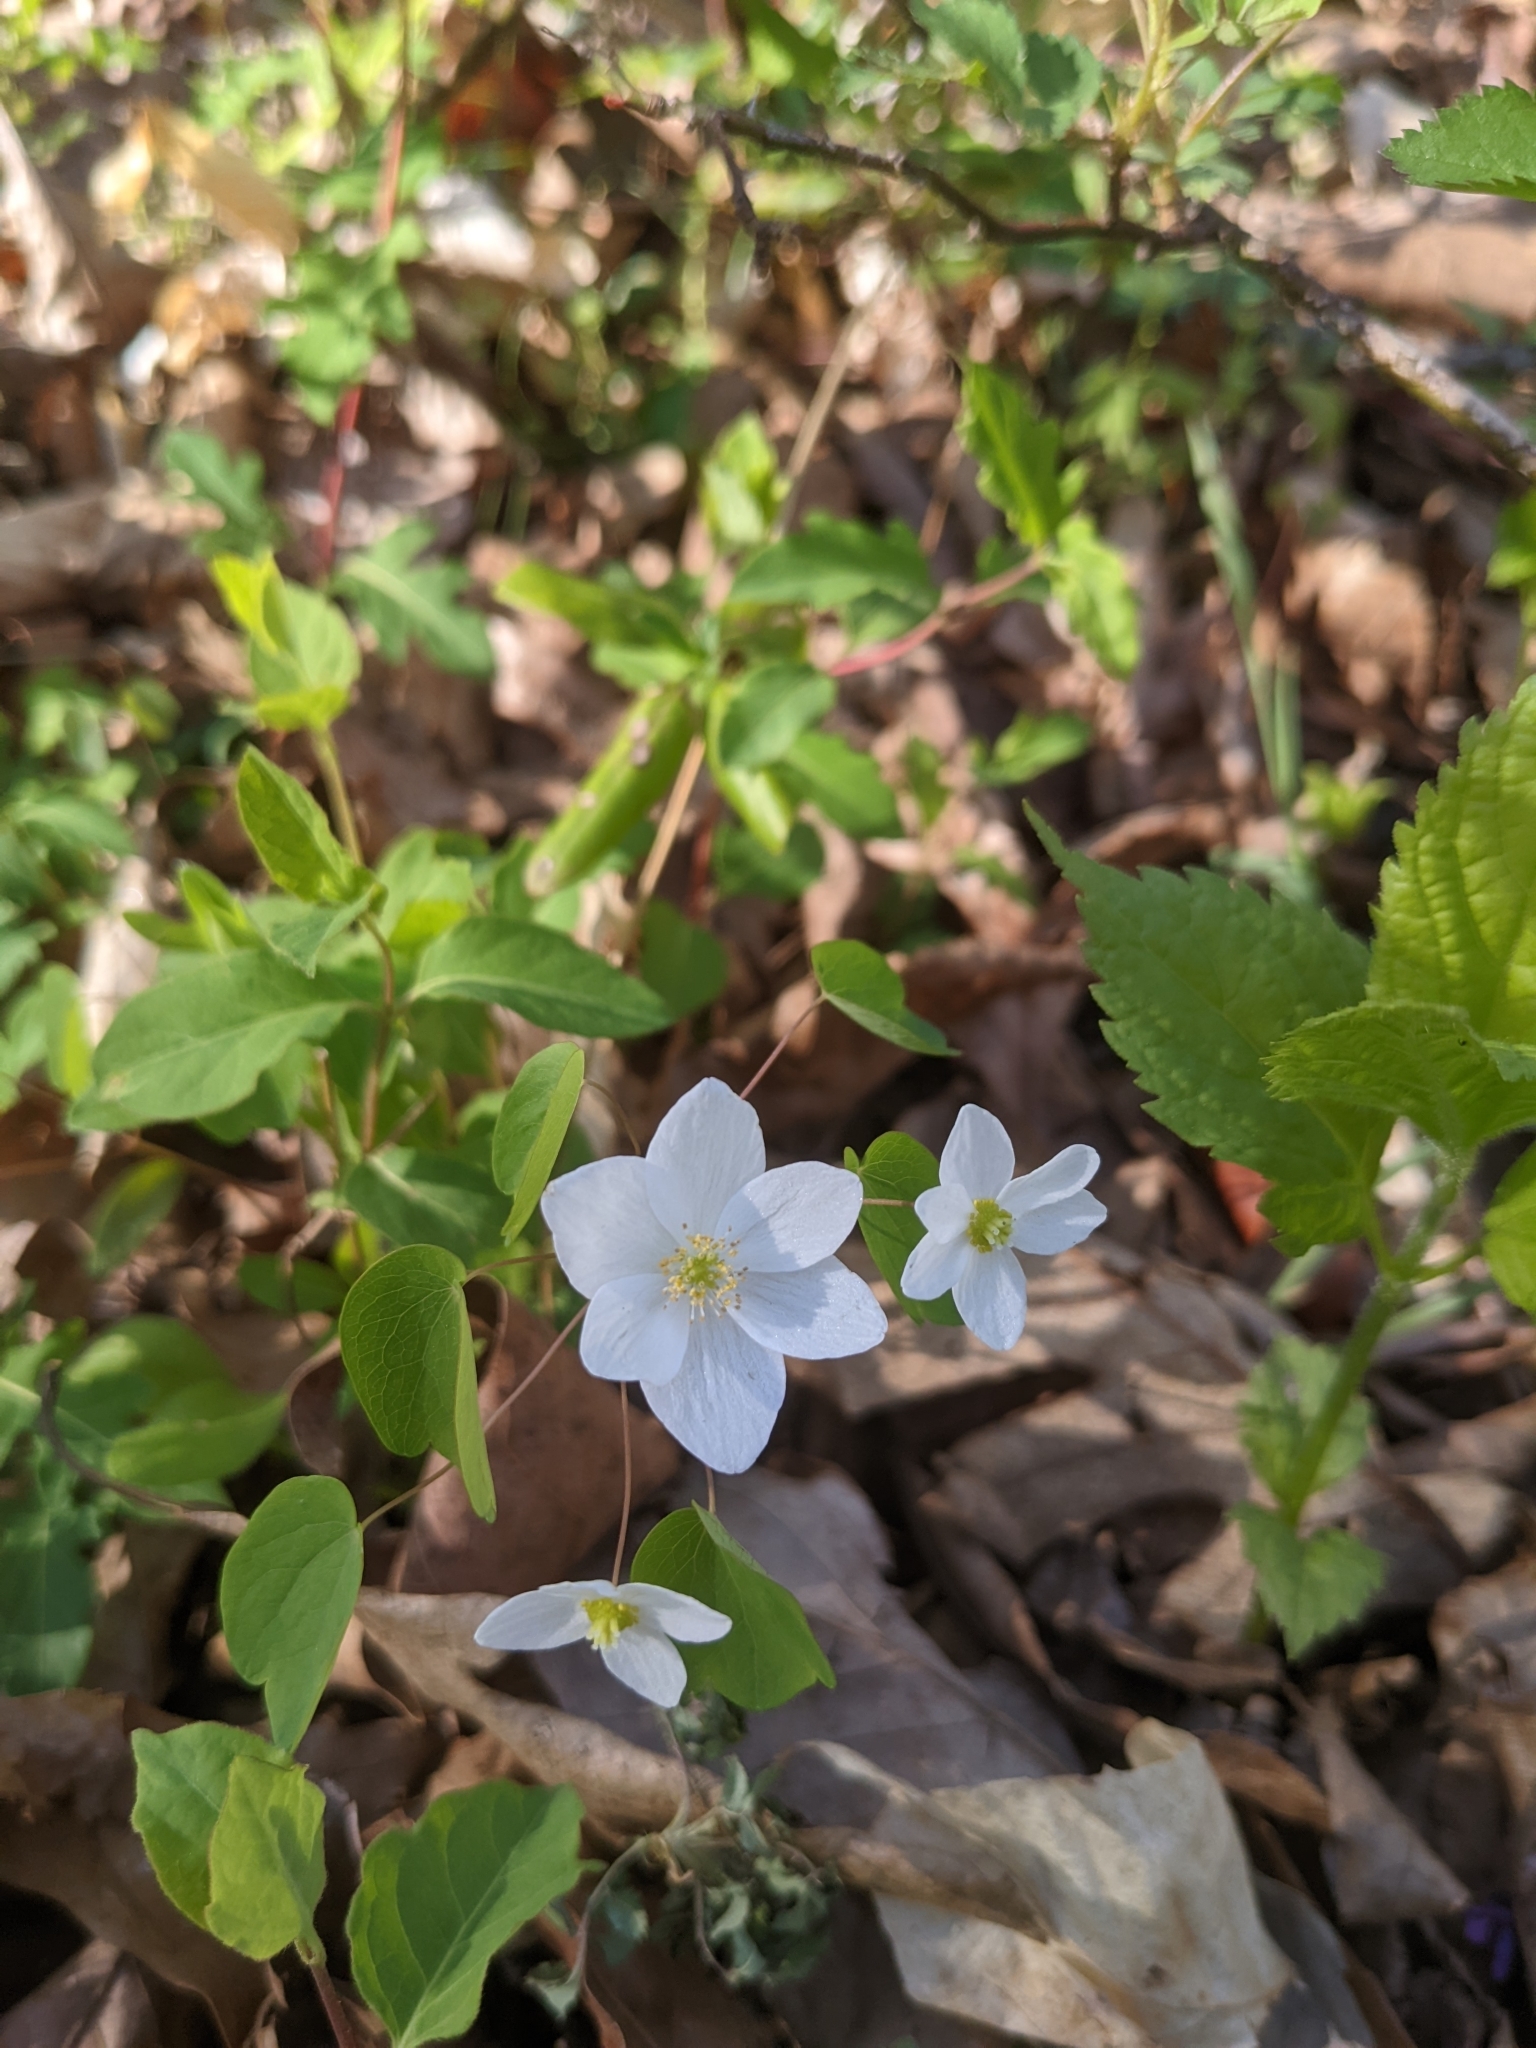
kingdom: Plantae
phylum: Tracheophyta
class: Magnoliopsida
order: Ranunculales
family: Ranunculaceae
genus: Thalictrum
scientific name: Thalictrum thalictroides
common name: Rue-anemone
